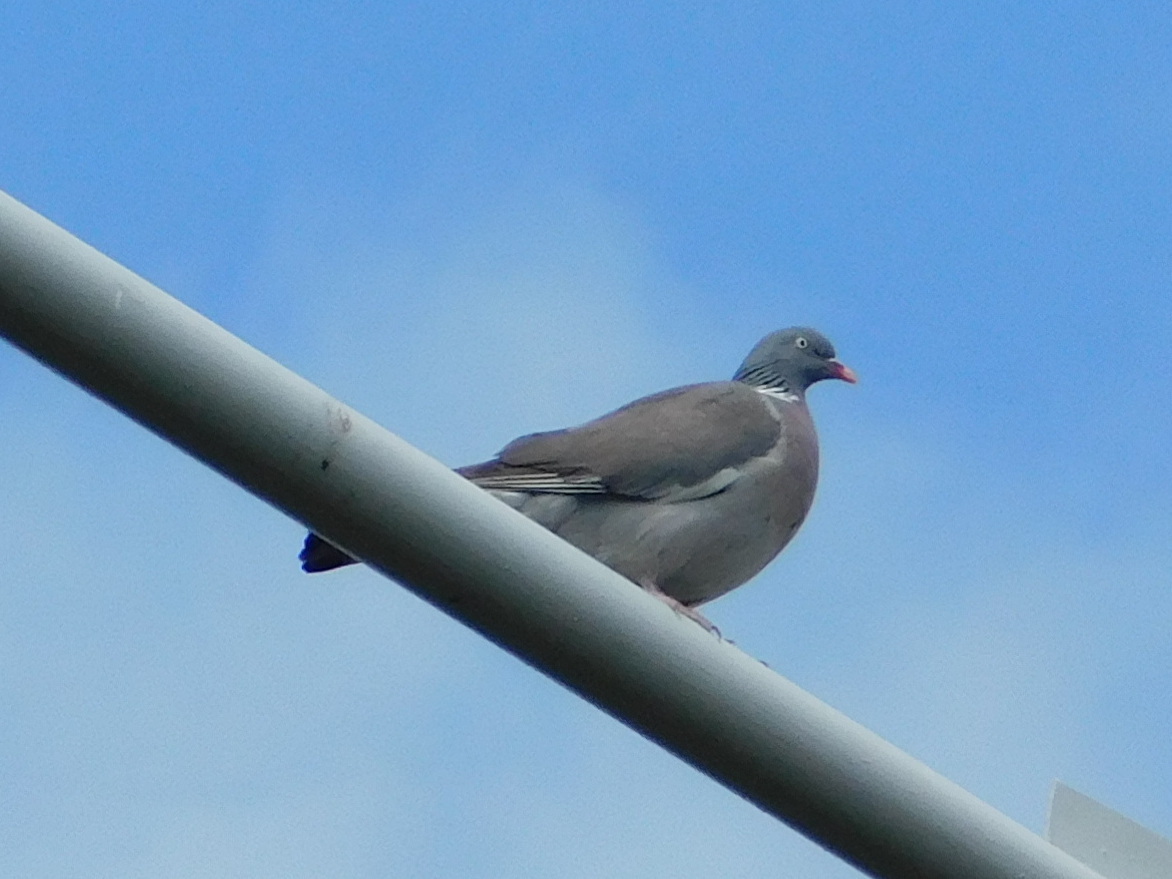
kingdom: Animalia
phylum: Chordata
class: Aves
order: Columbiformes
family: Columbidae
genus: Columba
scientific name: Columba palumbus
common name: Common wood pigeon
